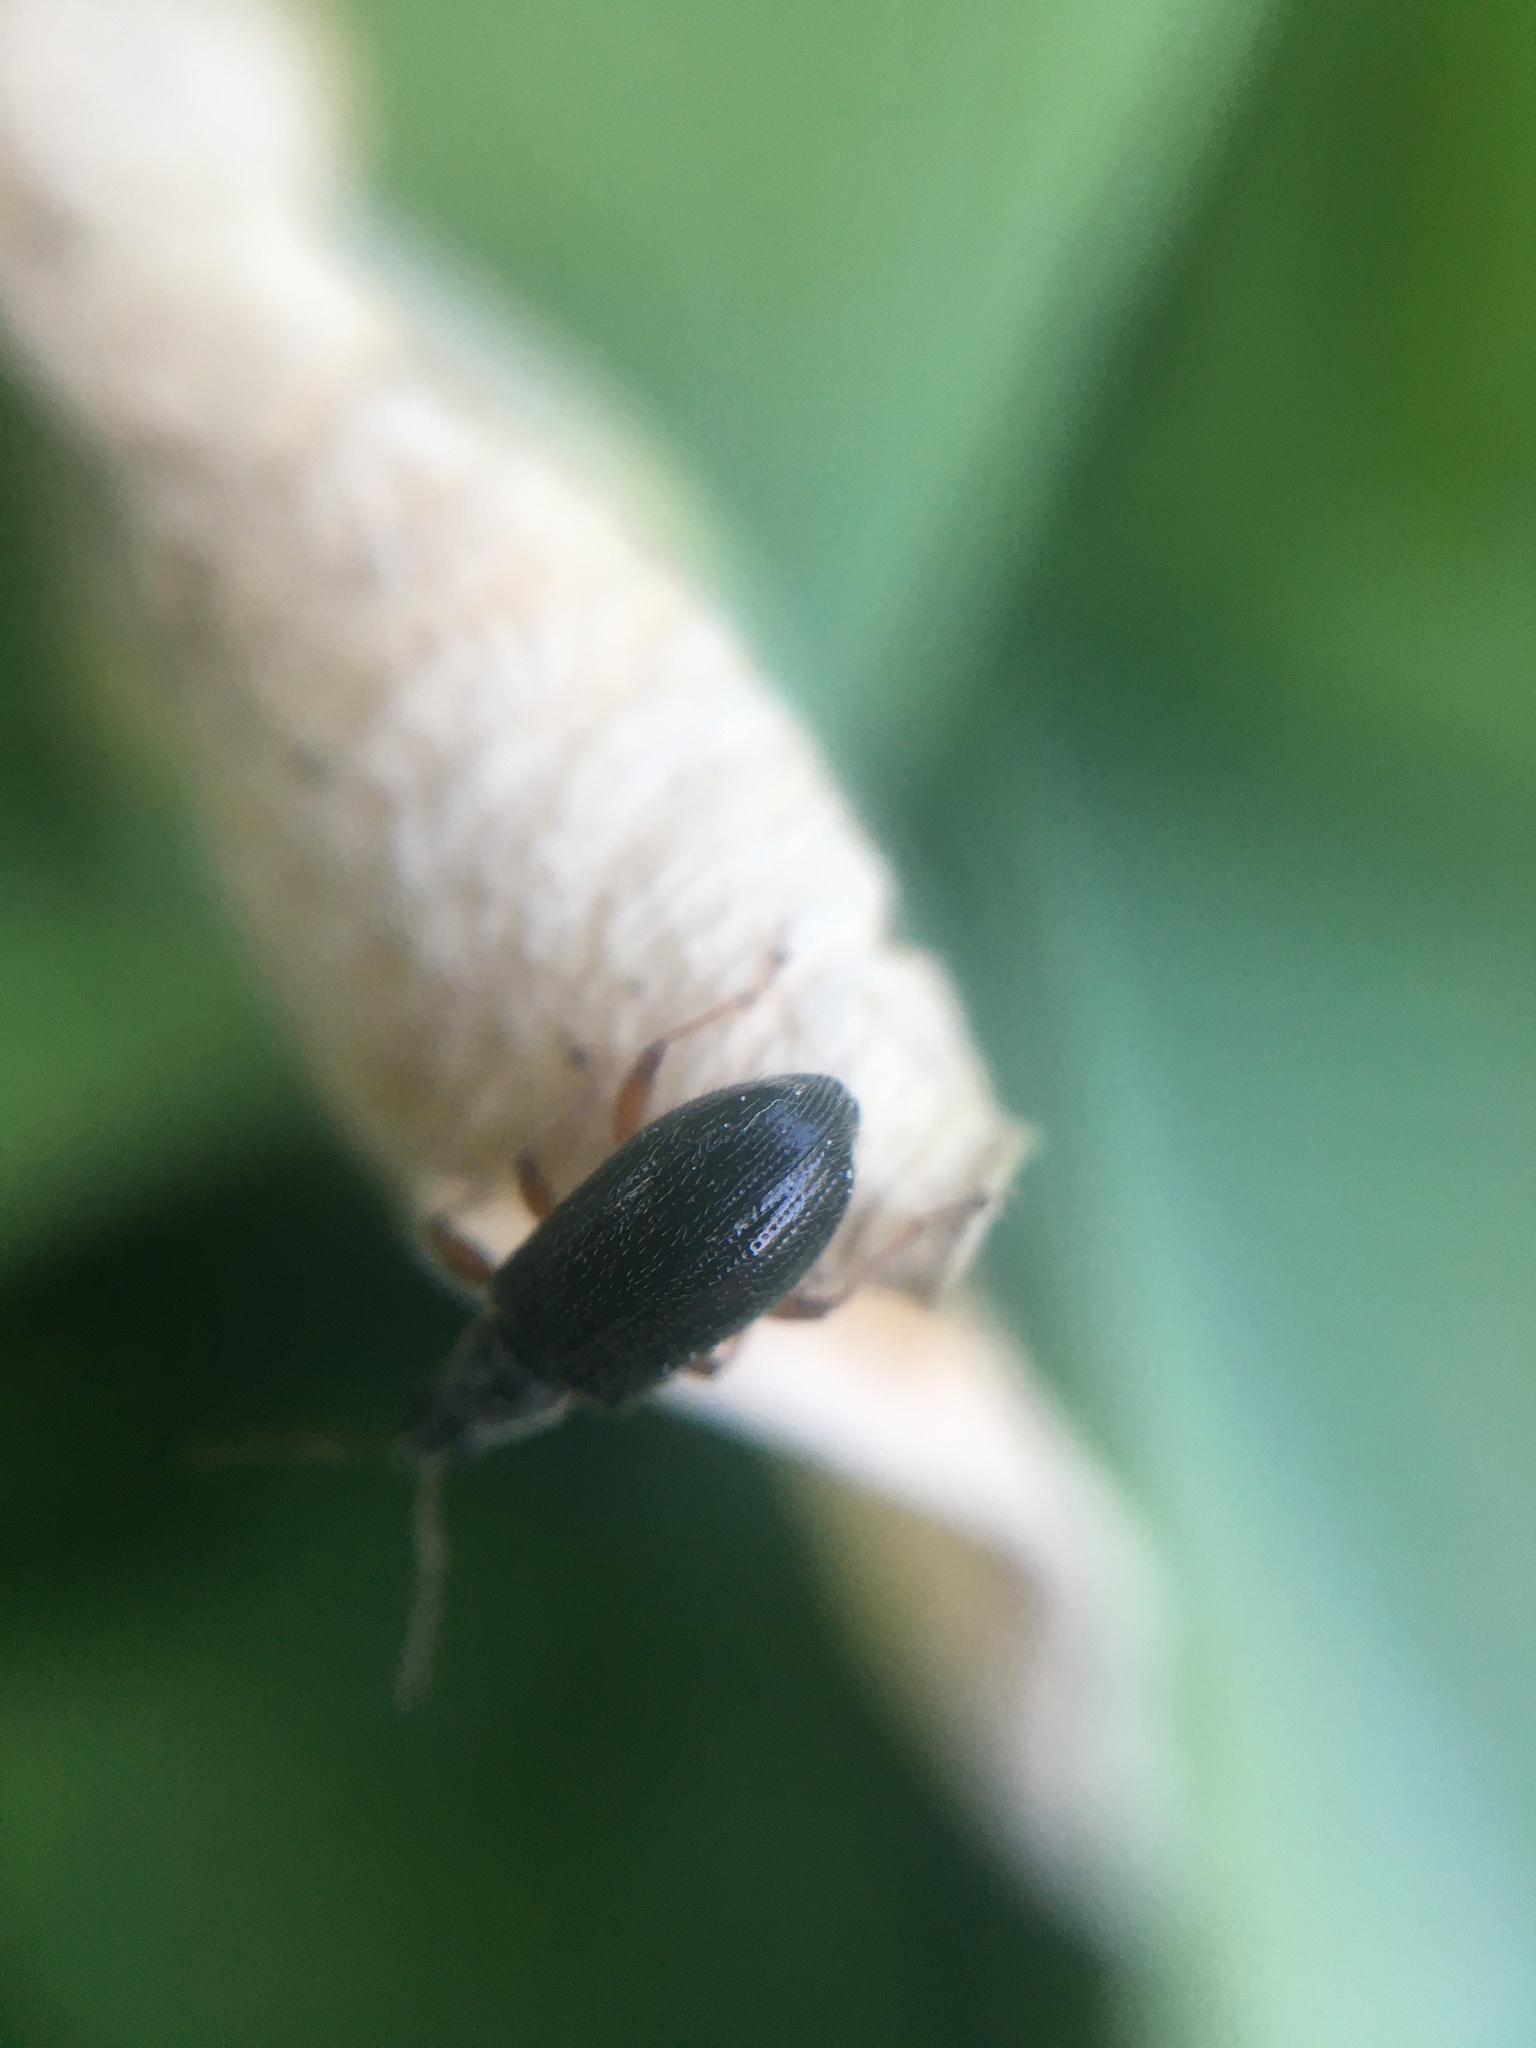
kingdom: Animalia
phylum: Arthropoda
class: Insecta
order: Coleoptera
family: Curculionidae
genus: Phyllobius
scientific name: Phyllobius oblongus
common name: Brown leaf weevil
